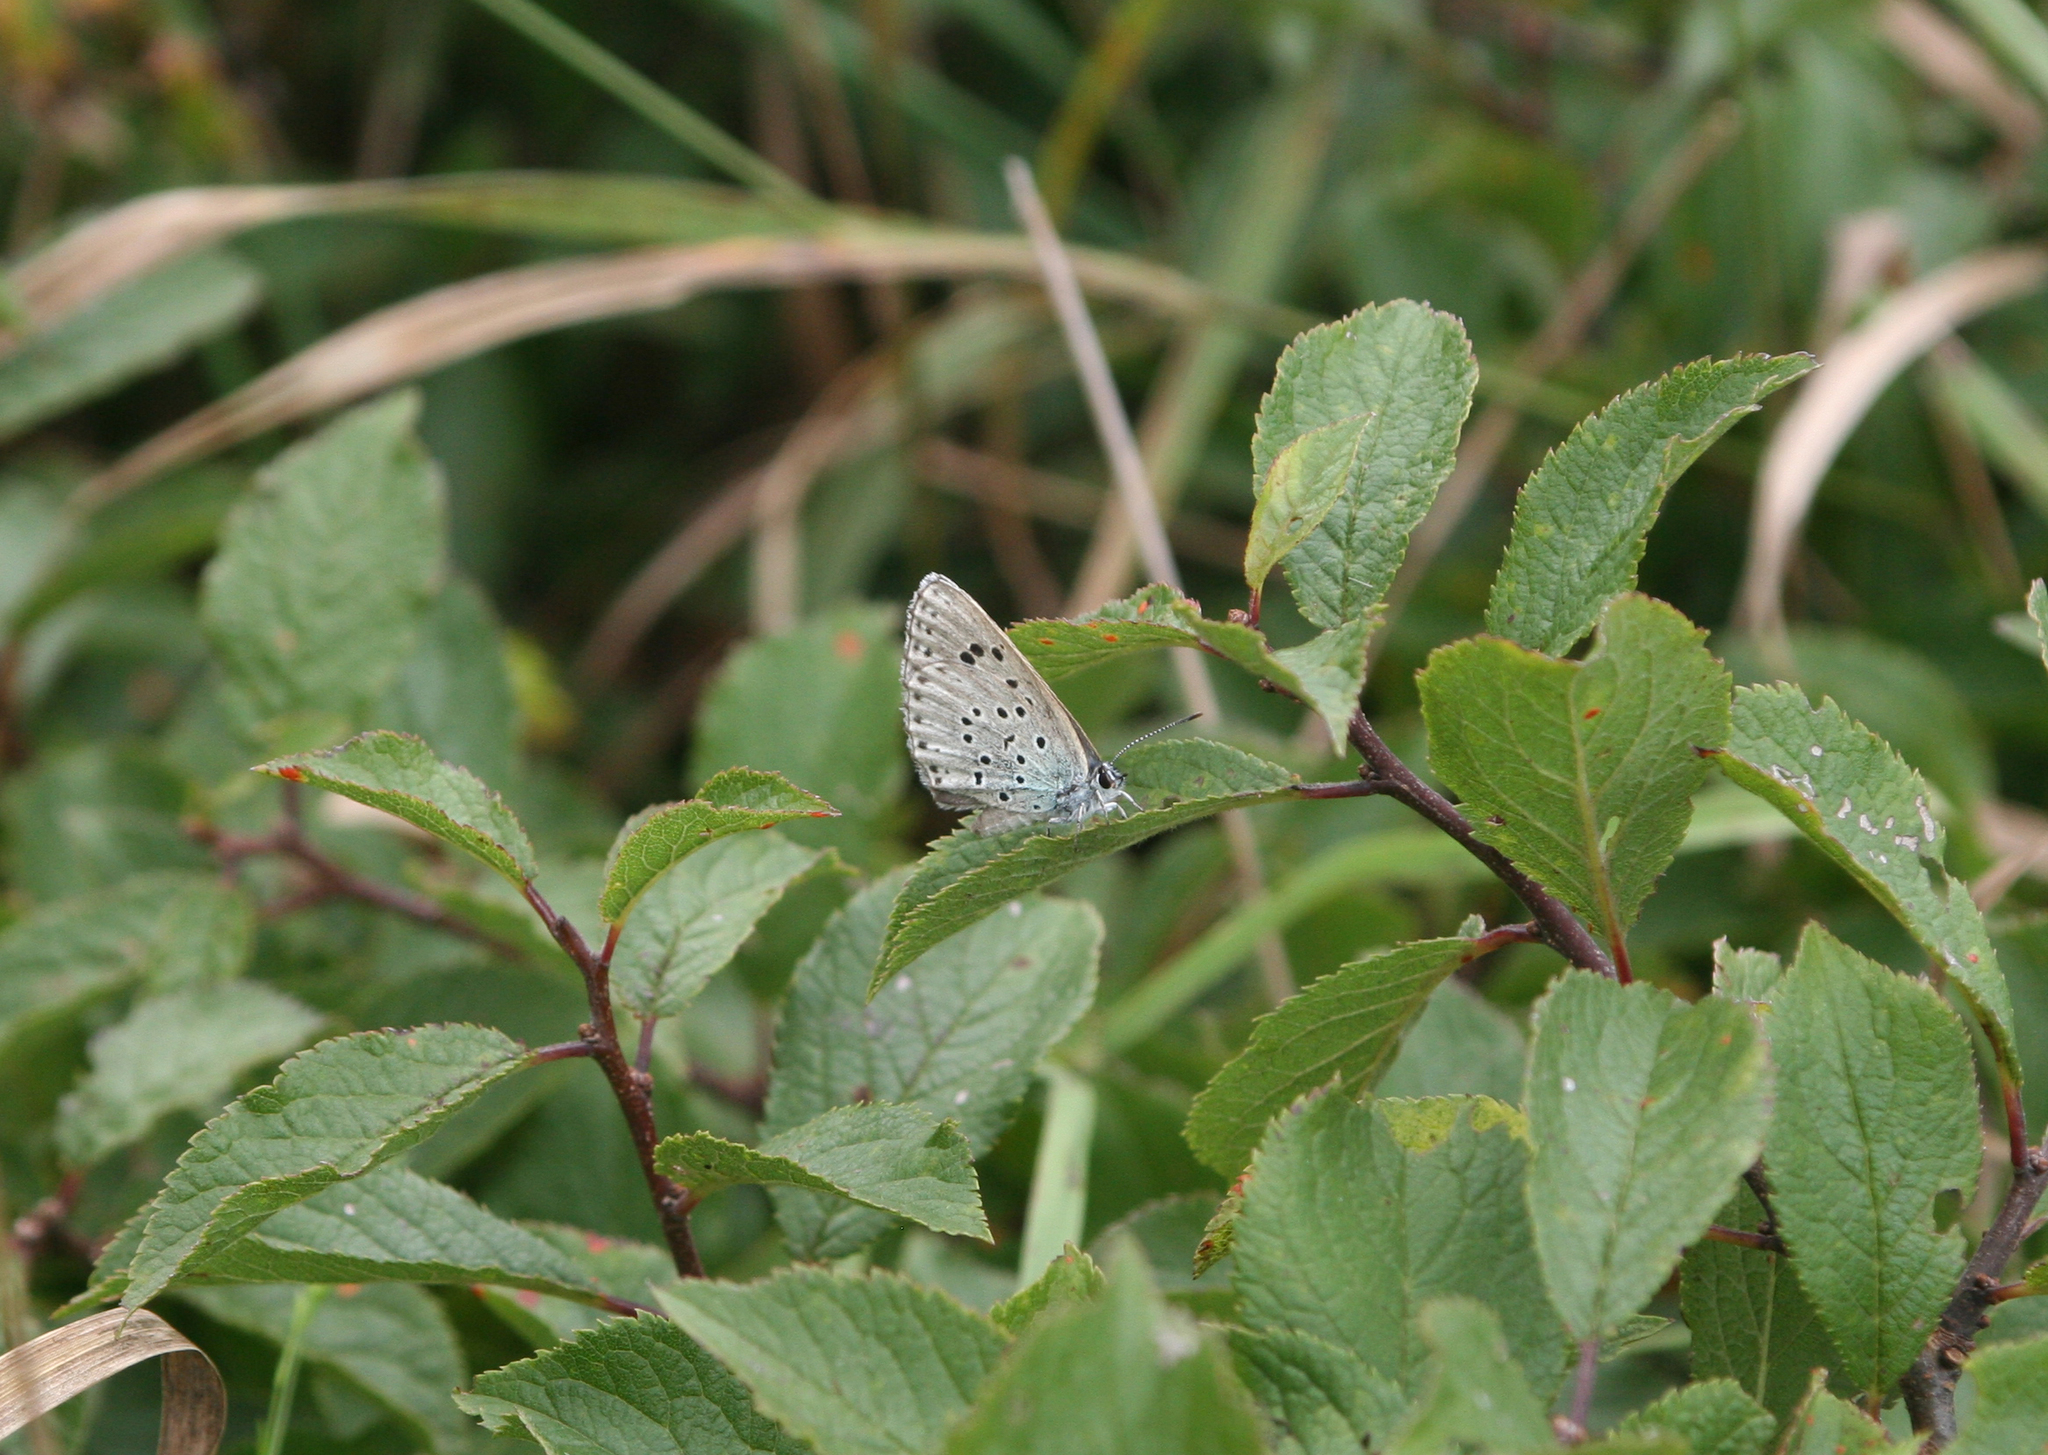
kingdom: Animalia
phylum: Arthropoda
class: Insecta
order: Lepidoptera
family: Lycaenidae
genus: Maculinea
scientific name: Maculinea arion
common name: Large blue
